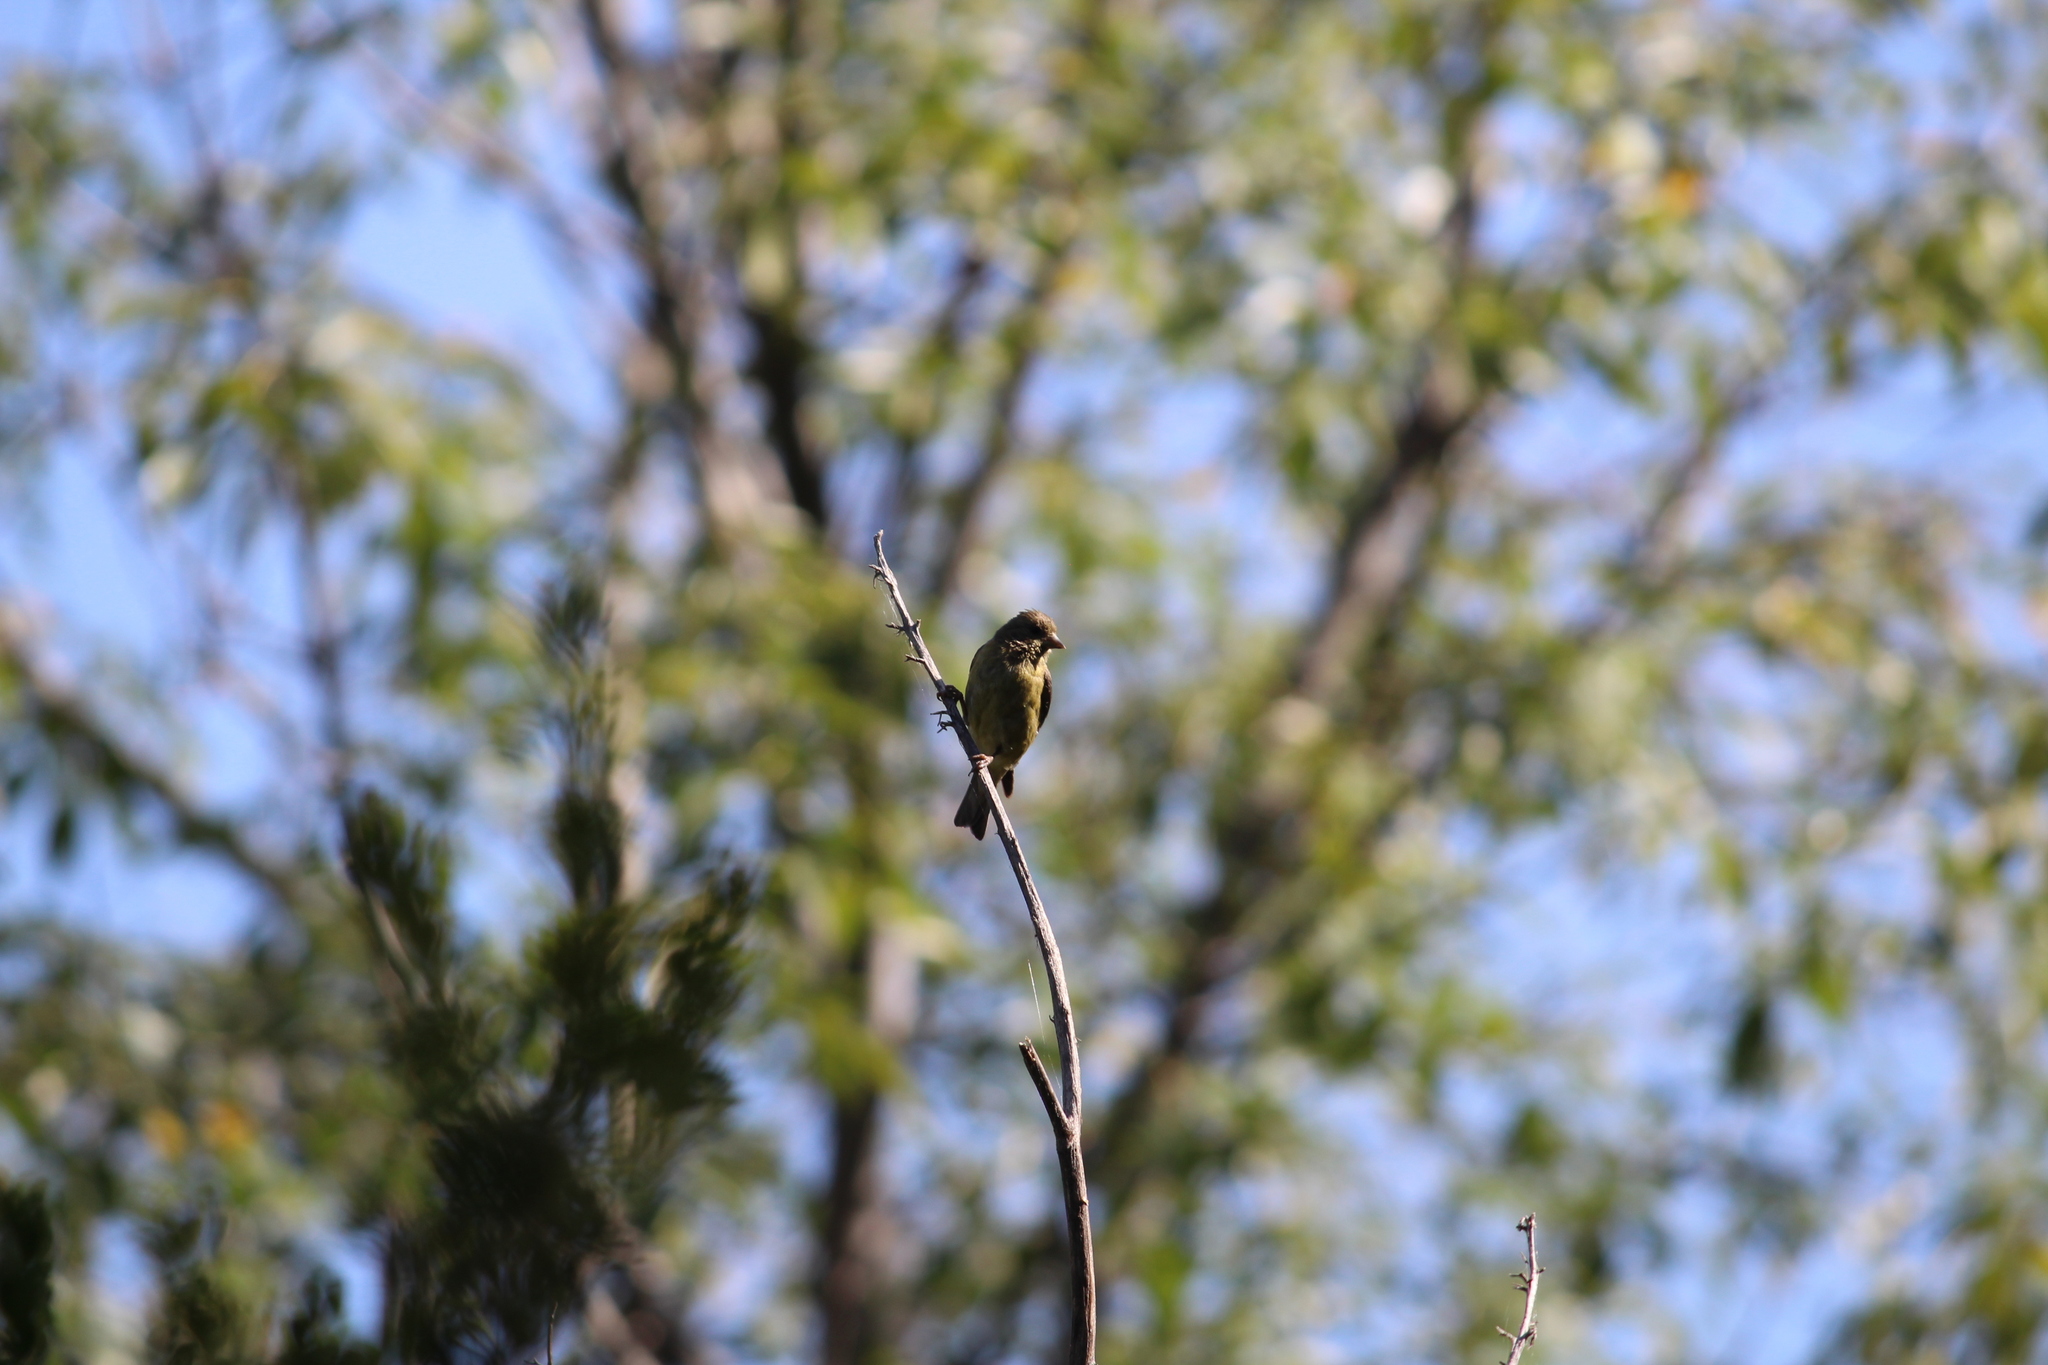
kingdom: Animalia
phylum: Chordata
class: Aves
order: Passeriformes
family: Fringillidae
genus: Spinus
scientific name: Spinus psaltria
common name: Lesser goldfinch
